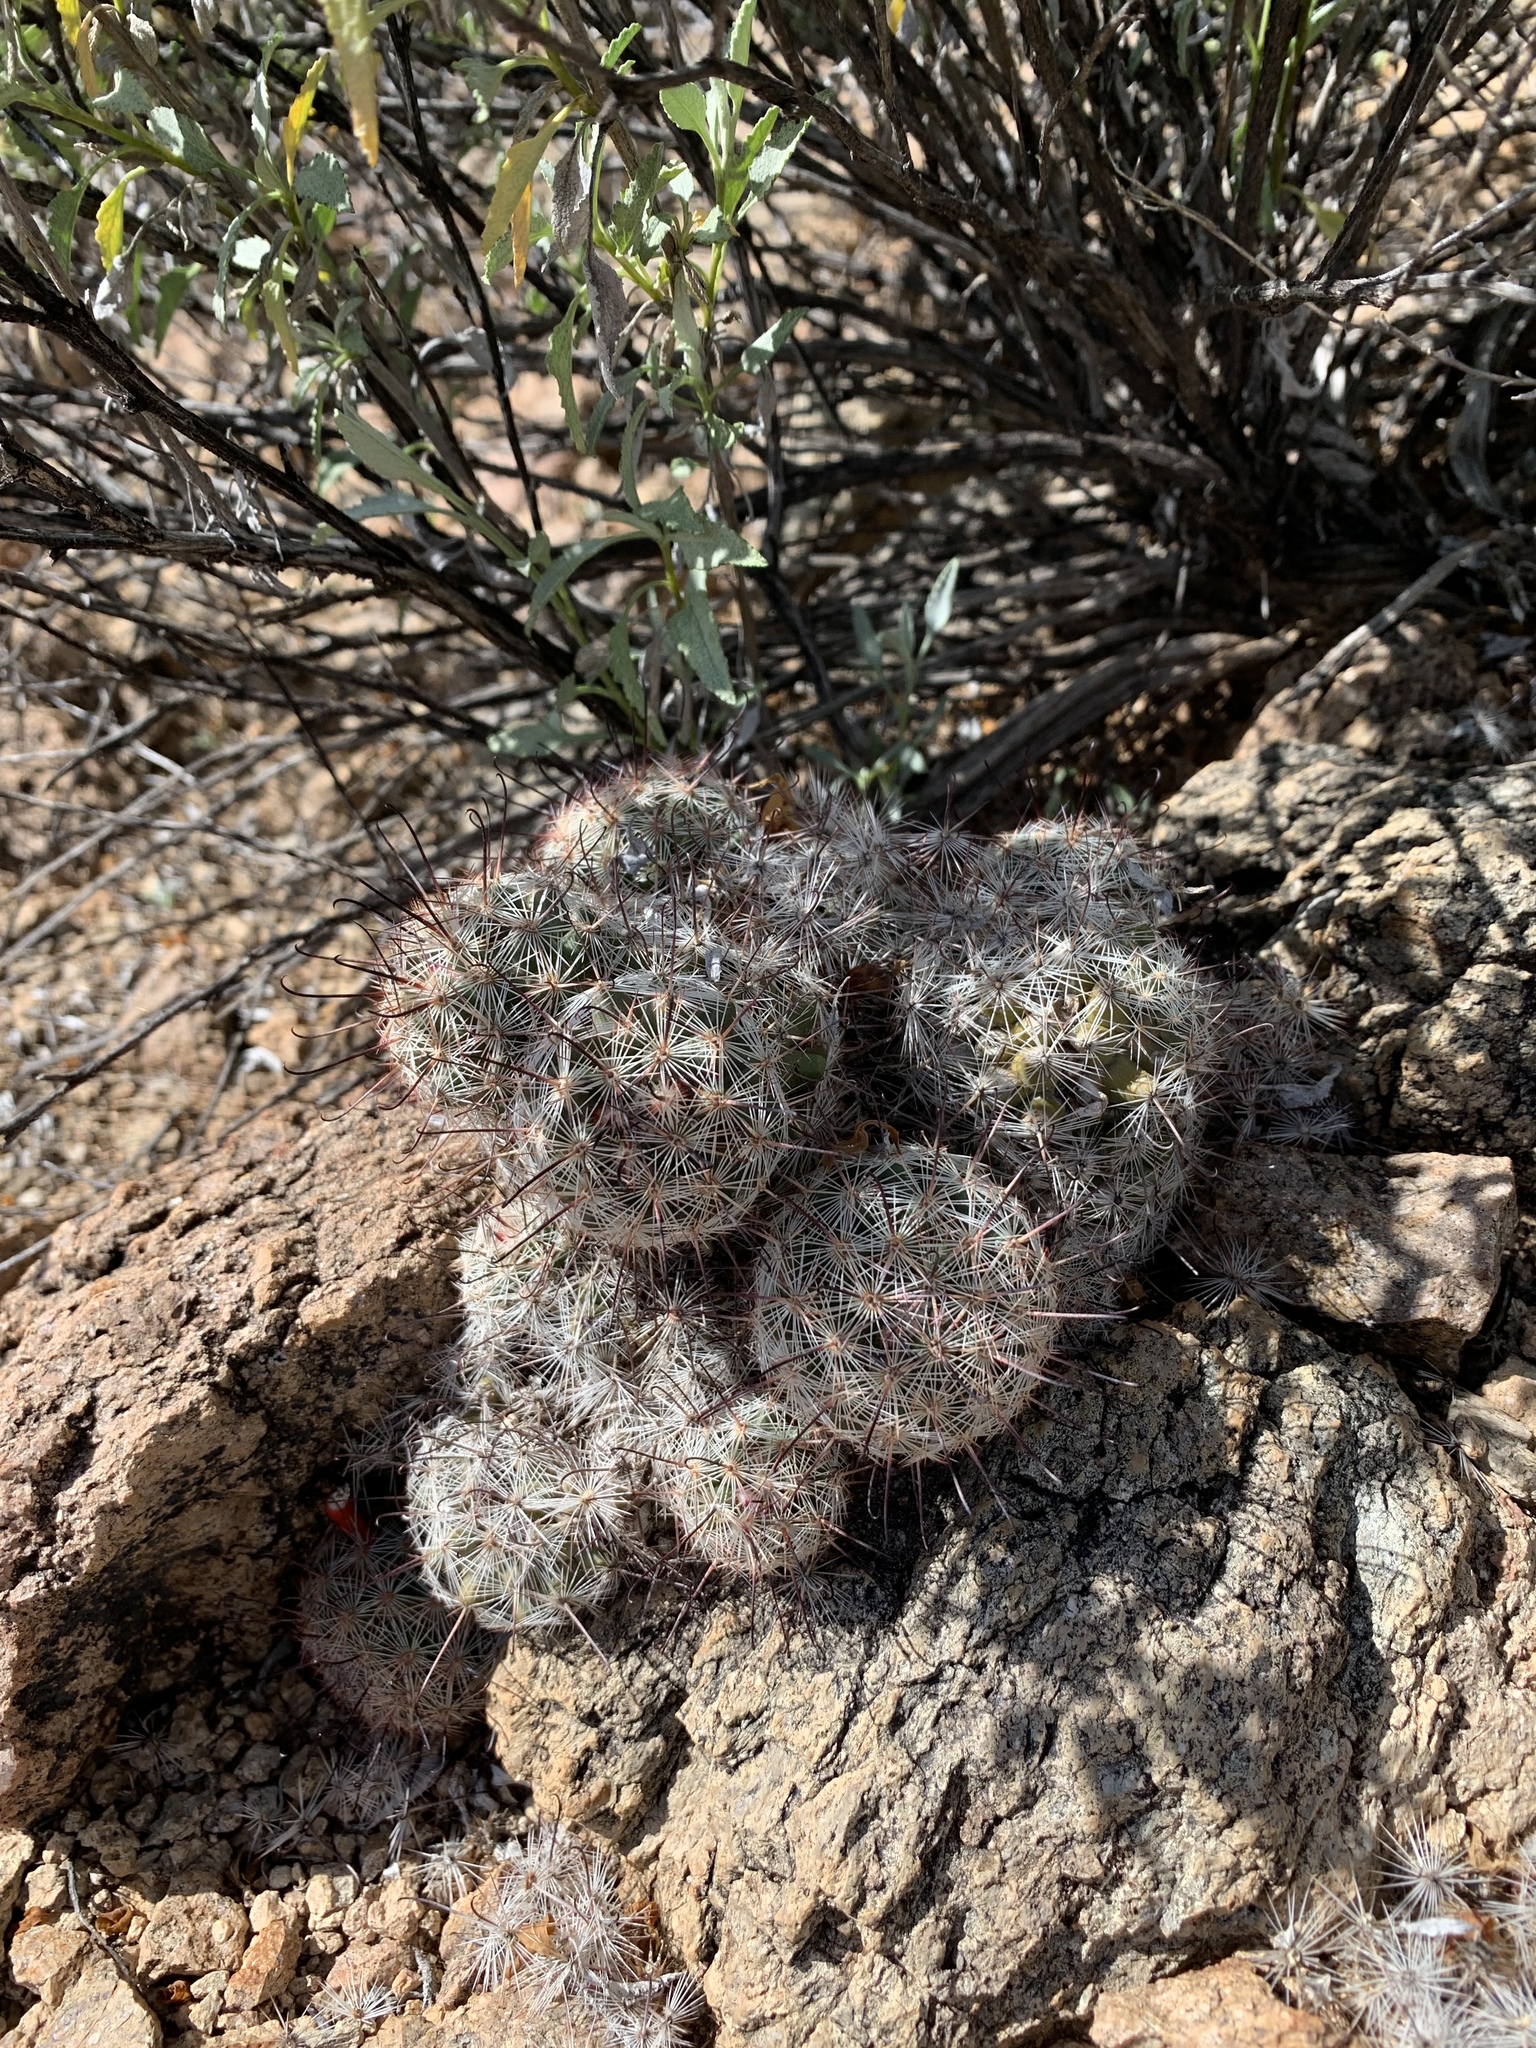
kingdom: Plantae
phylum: Tracheophyta
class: Magnoliopsida
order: Caryophyllales
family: Cactaceae
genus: Cochemiea
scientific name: Cochemiea grahamii
